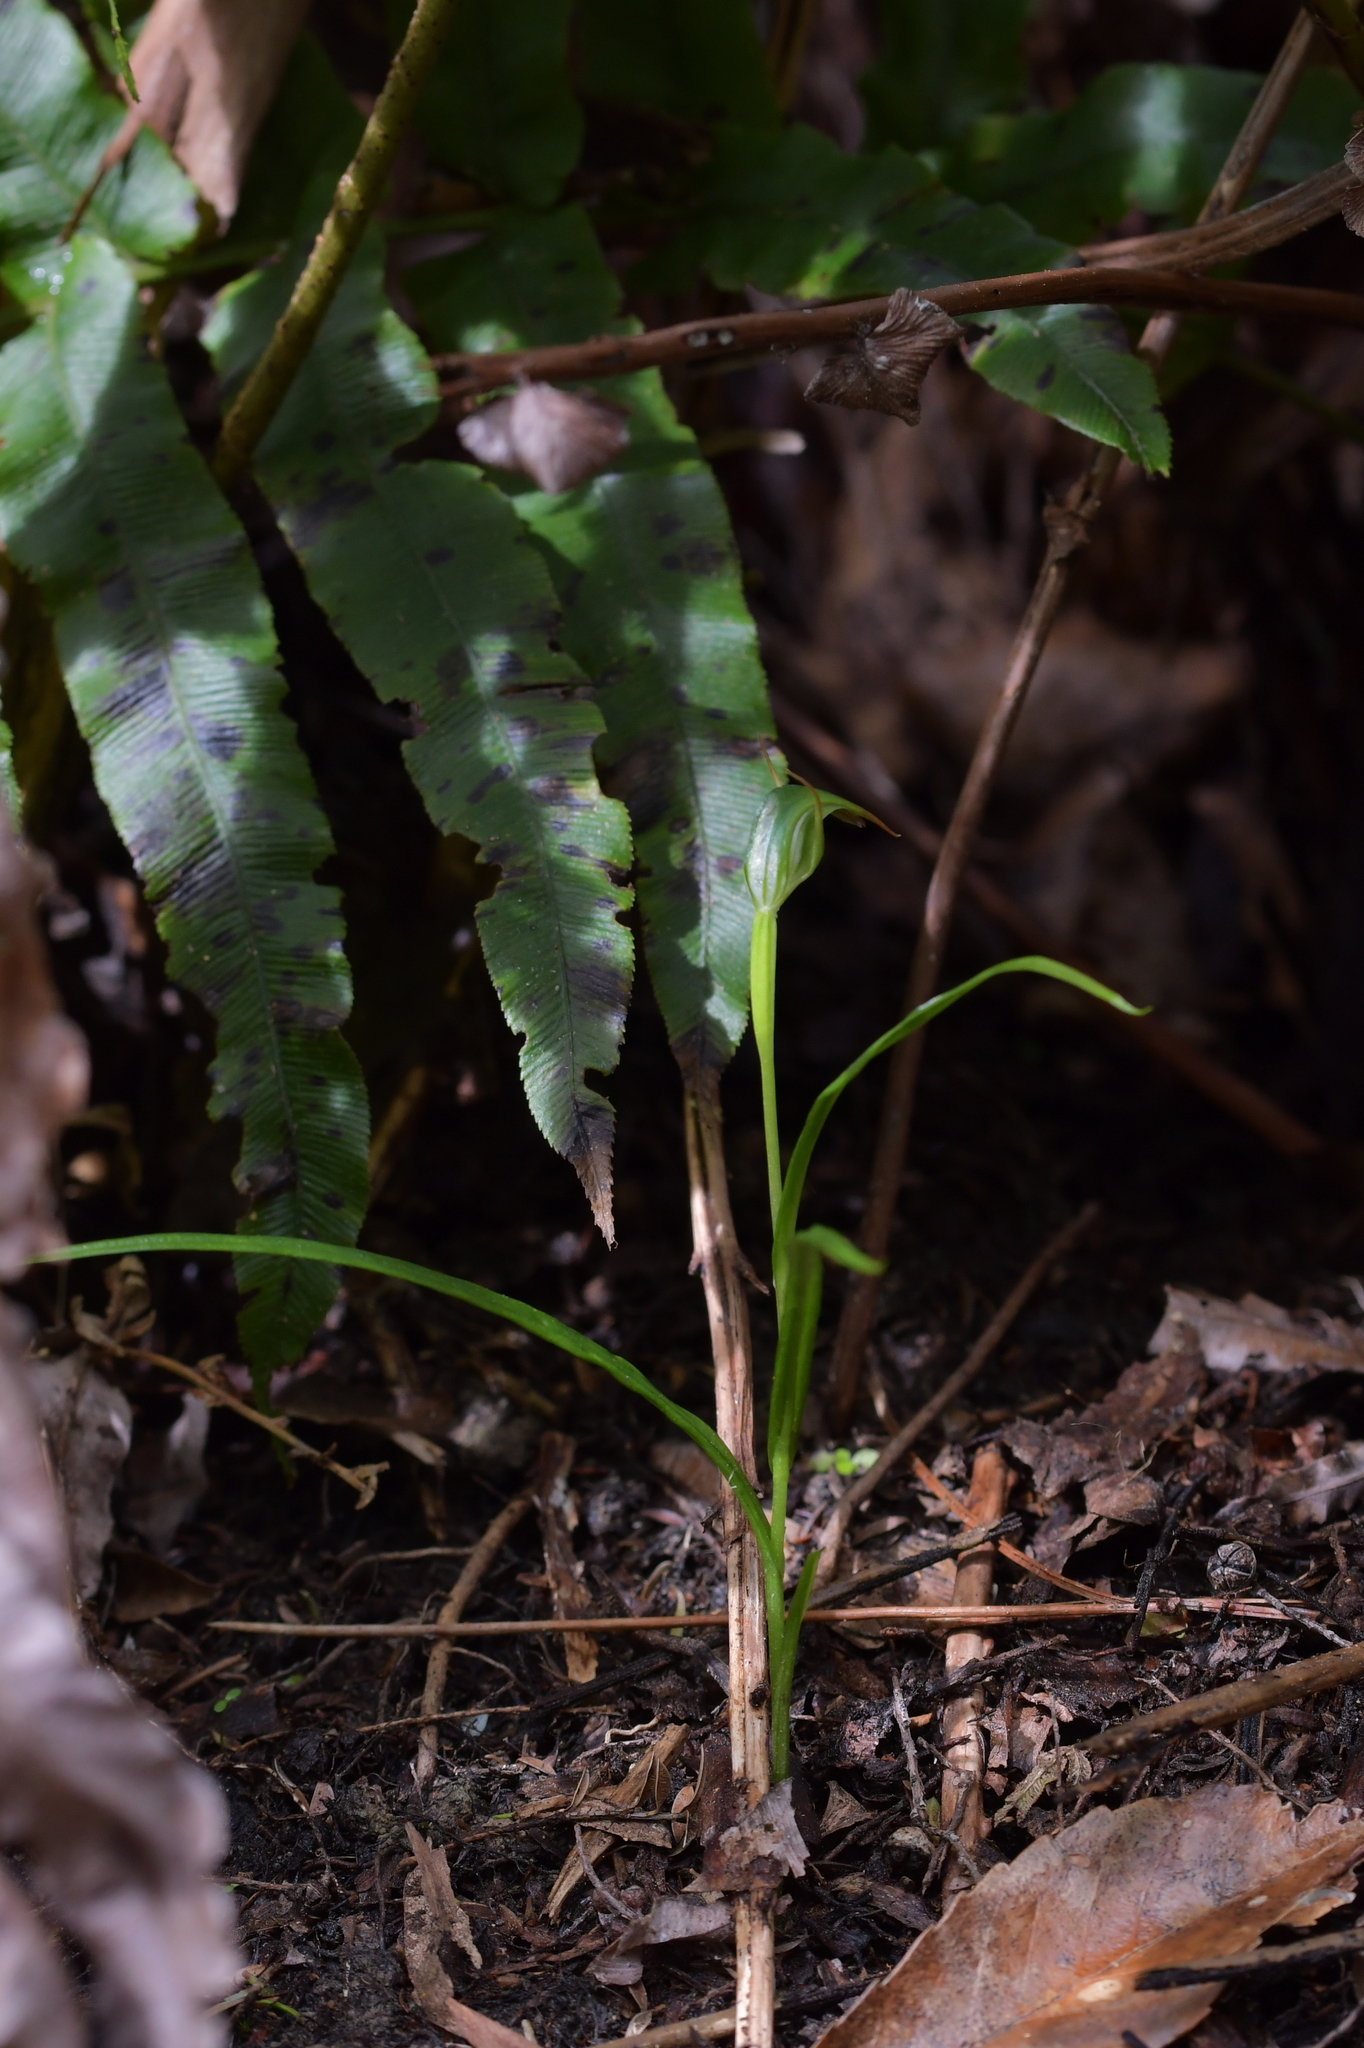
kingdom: Plantae
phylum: Tracheophyta
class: Liliopsida
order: Asparagales
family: Orchidaceae
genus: Pterostylis
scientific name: Pterostylis graminea
